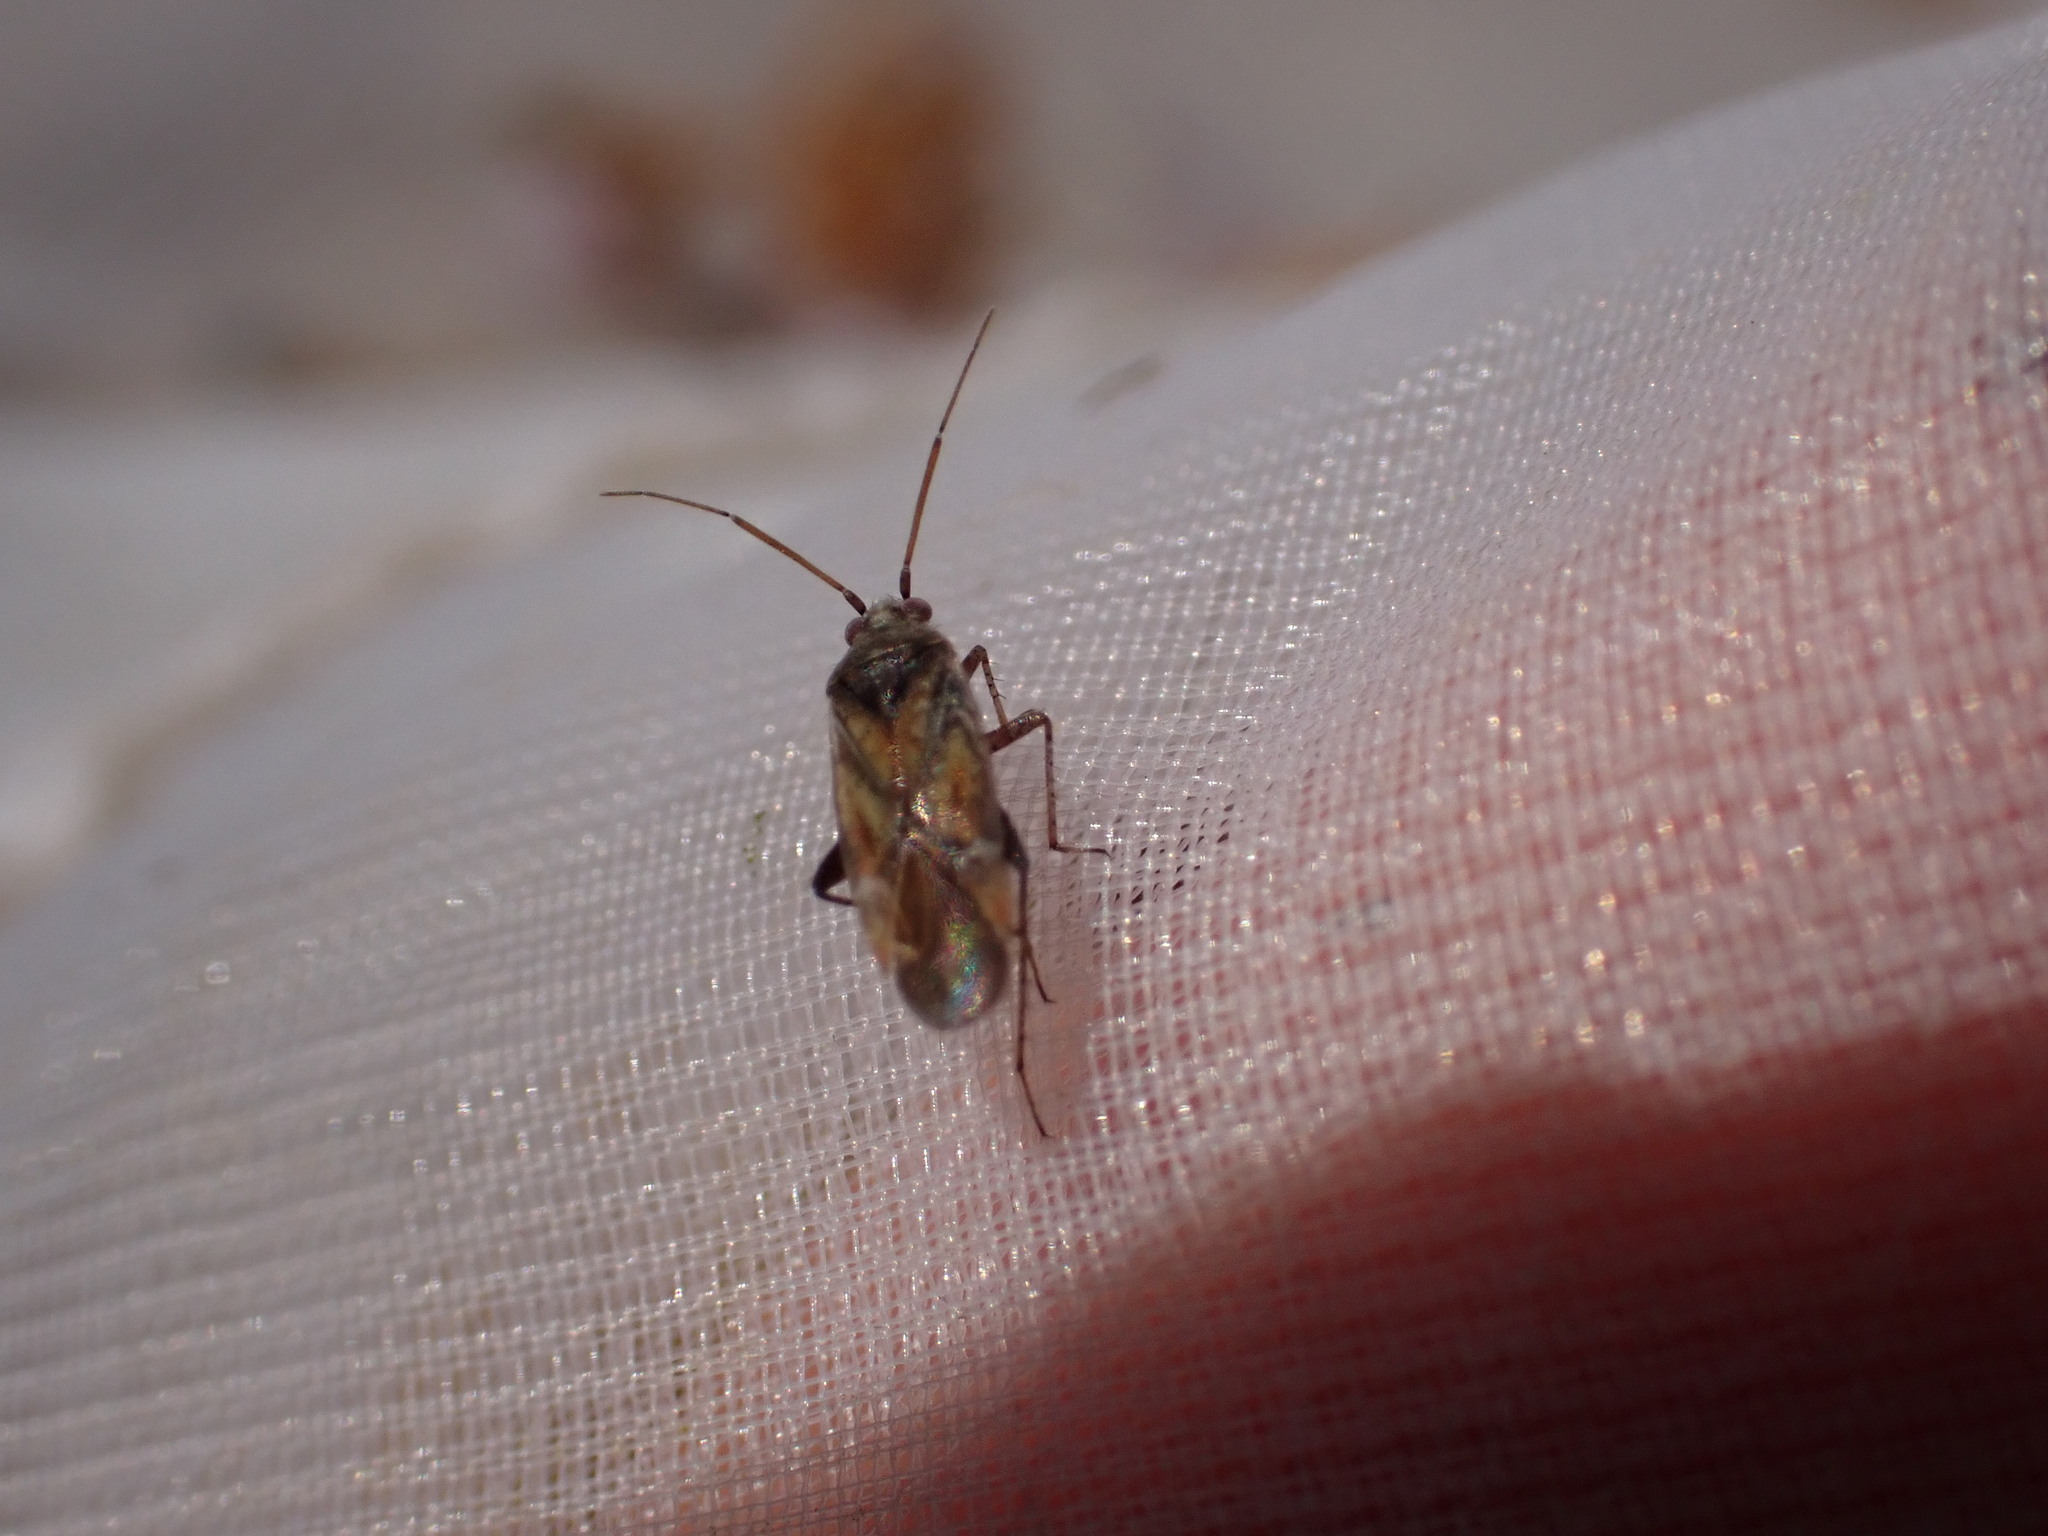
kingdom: Animalia
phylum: Arthropoda
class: Insecta
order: Hemiptera
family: Miridae
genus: Compsidolon
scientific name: Compsidolon crotchi
